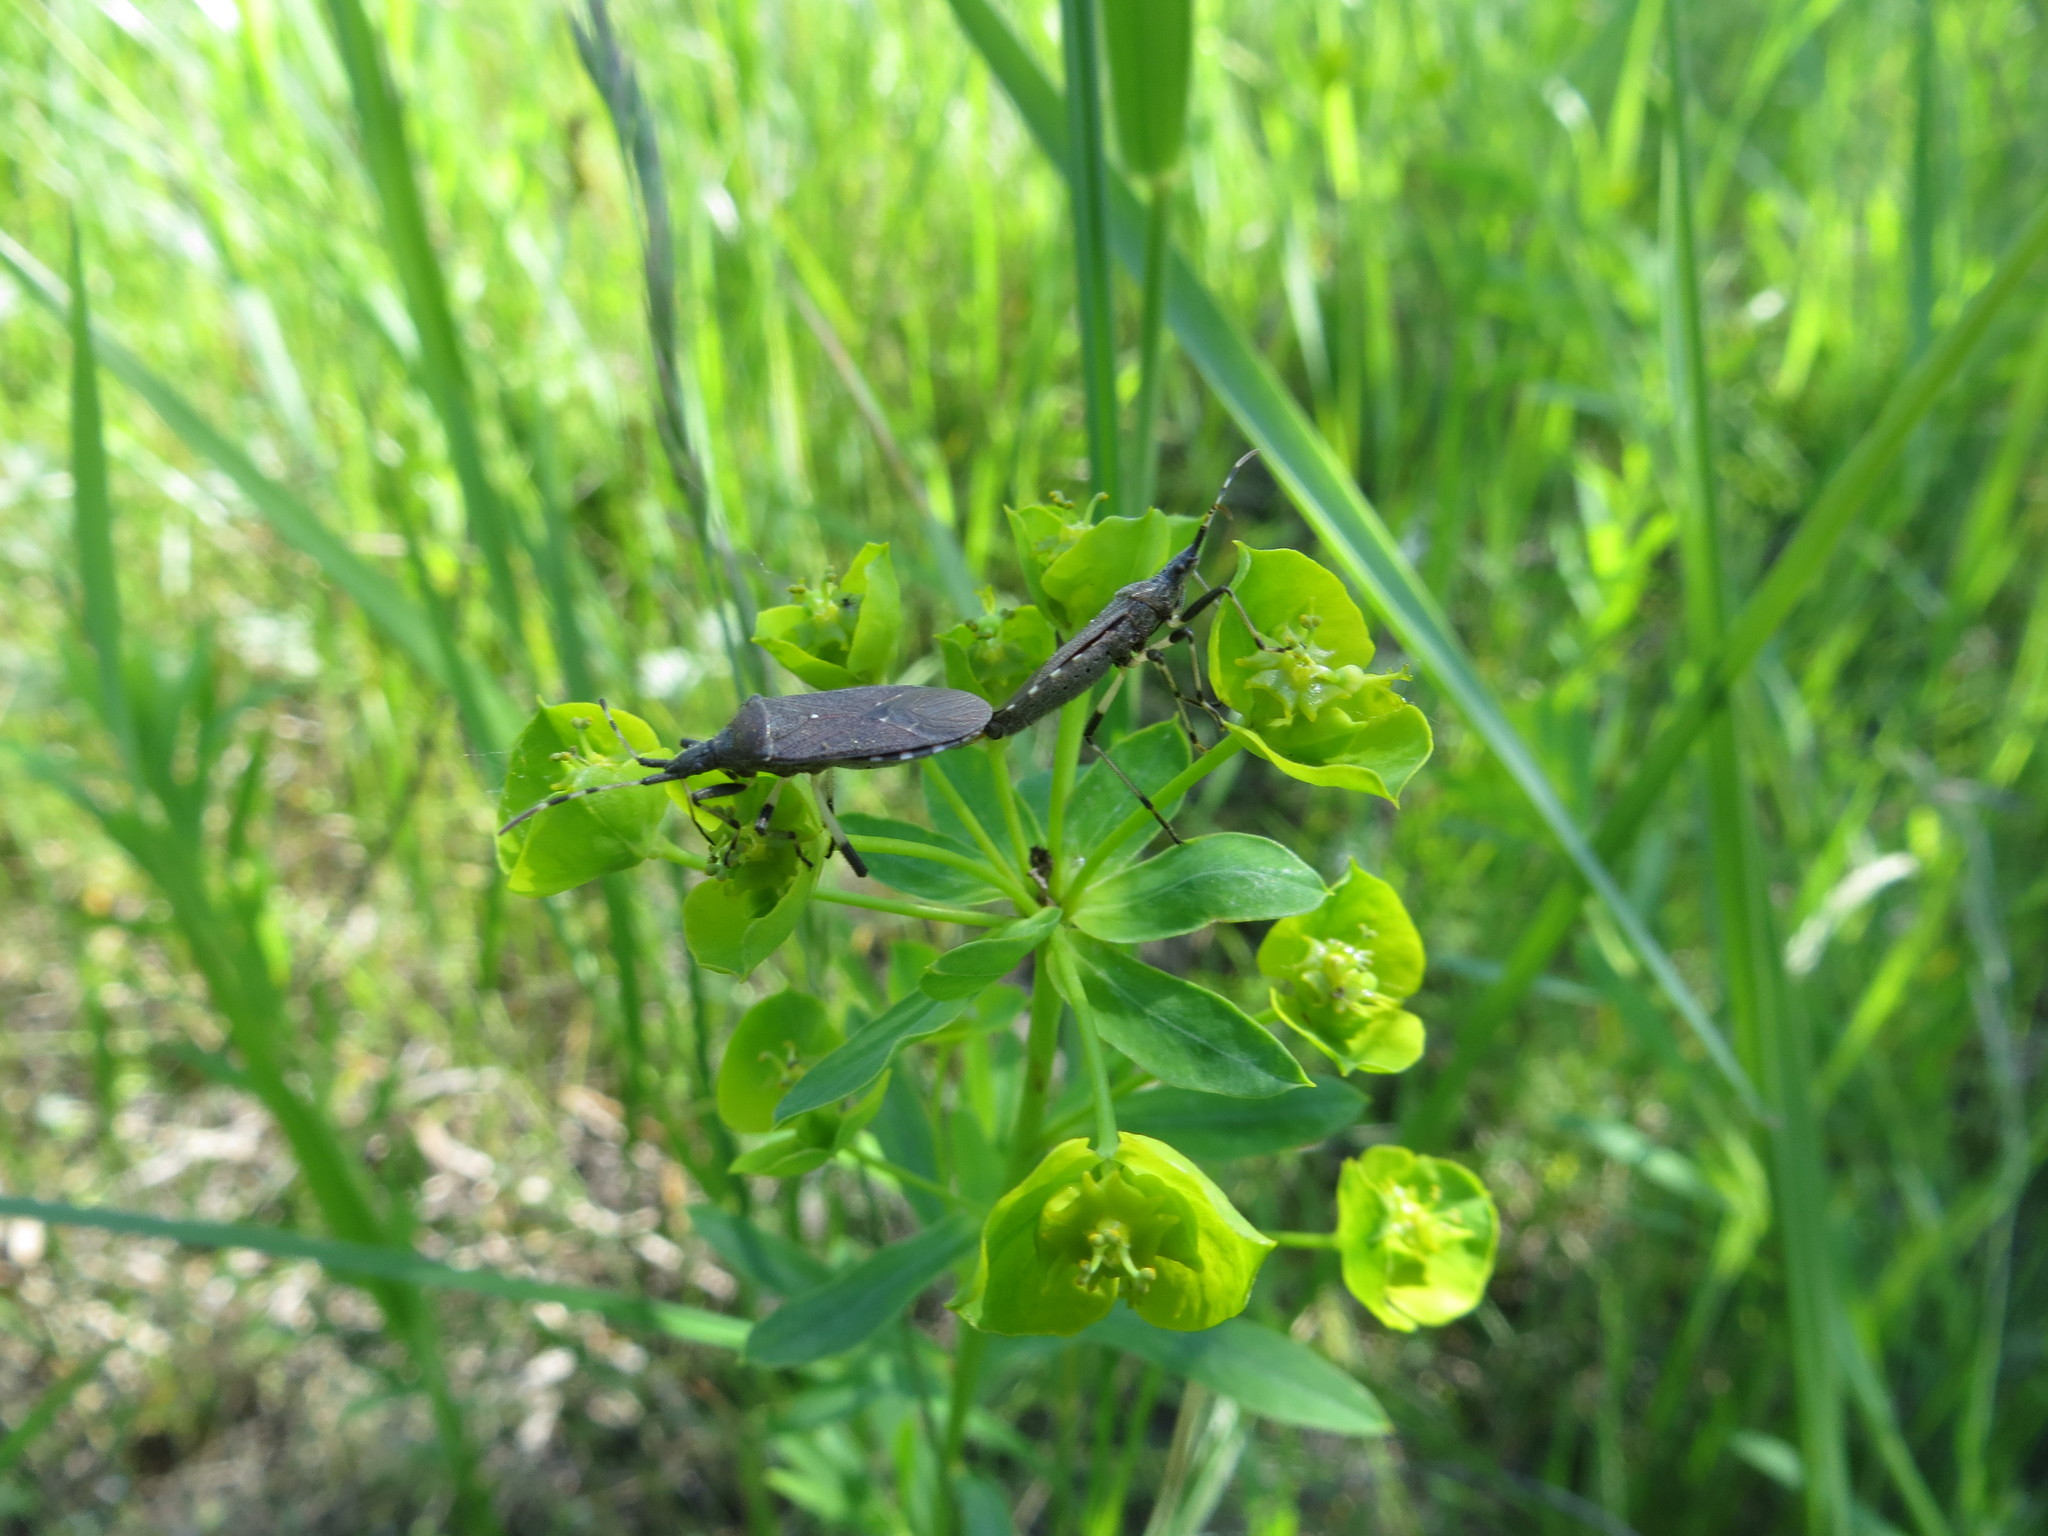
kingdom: Animalia
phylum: Arthropoda
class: Insecta
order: Hemiptera
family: Stenocephalidae
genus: Dicranocephalus
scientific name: Dicranocephalus albipes
